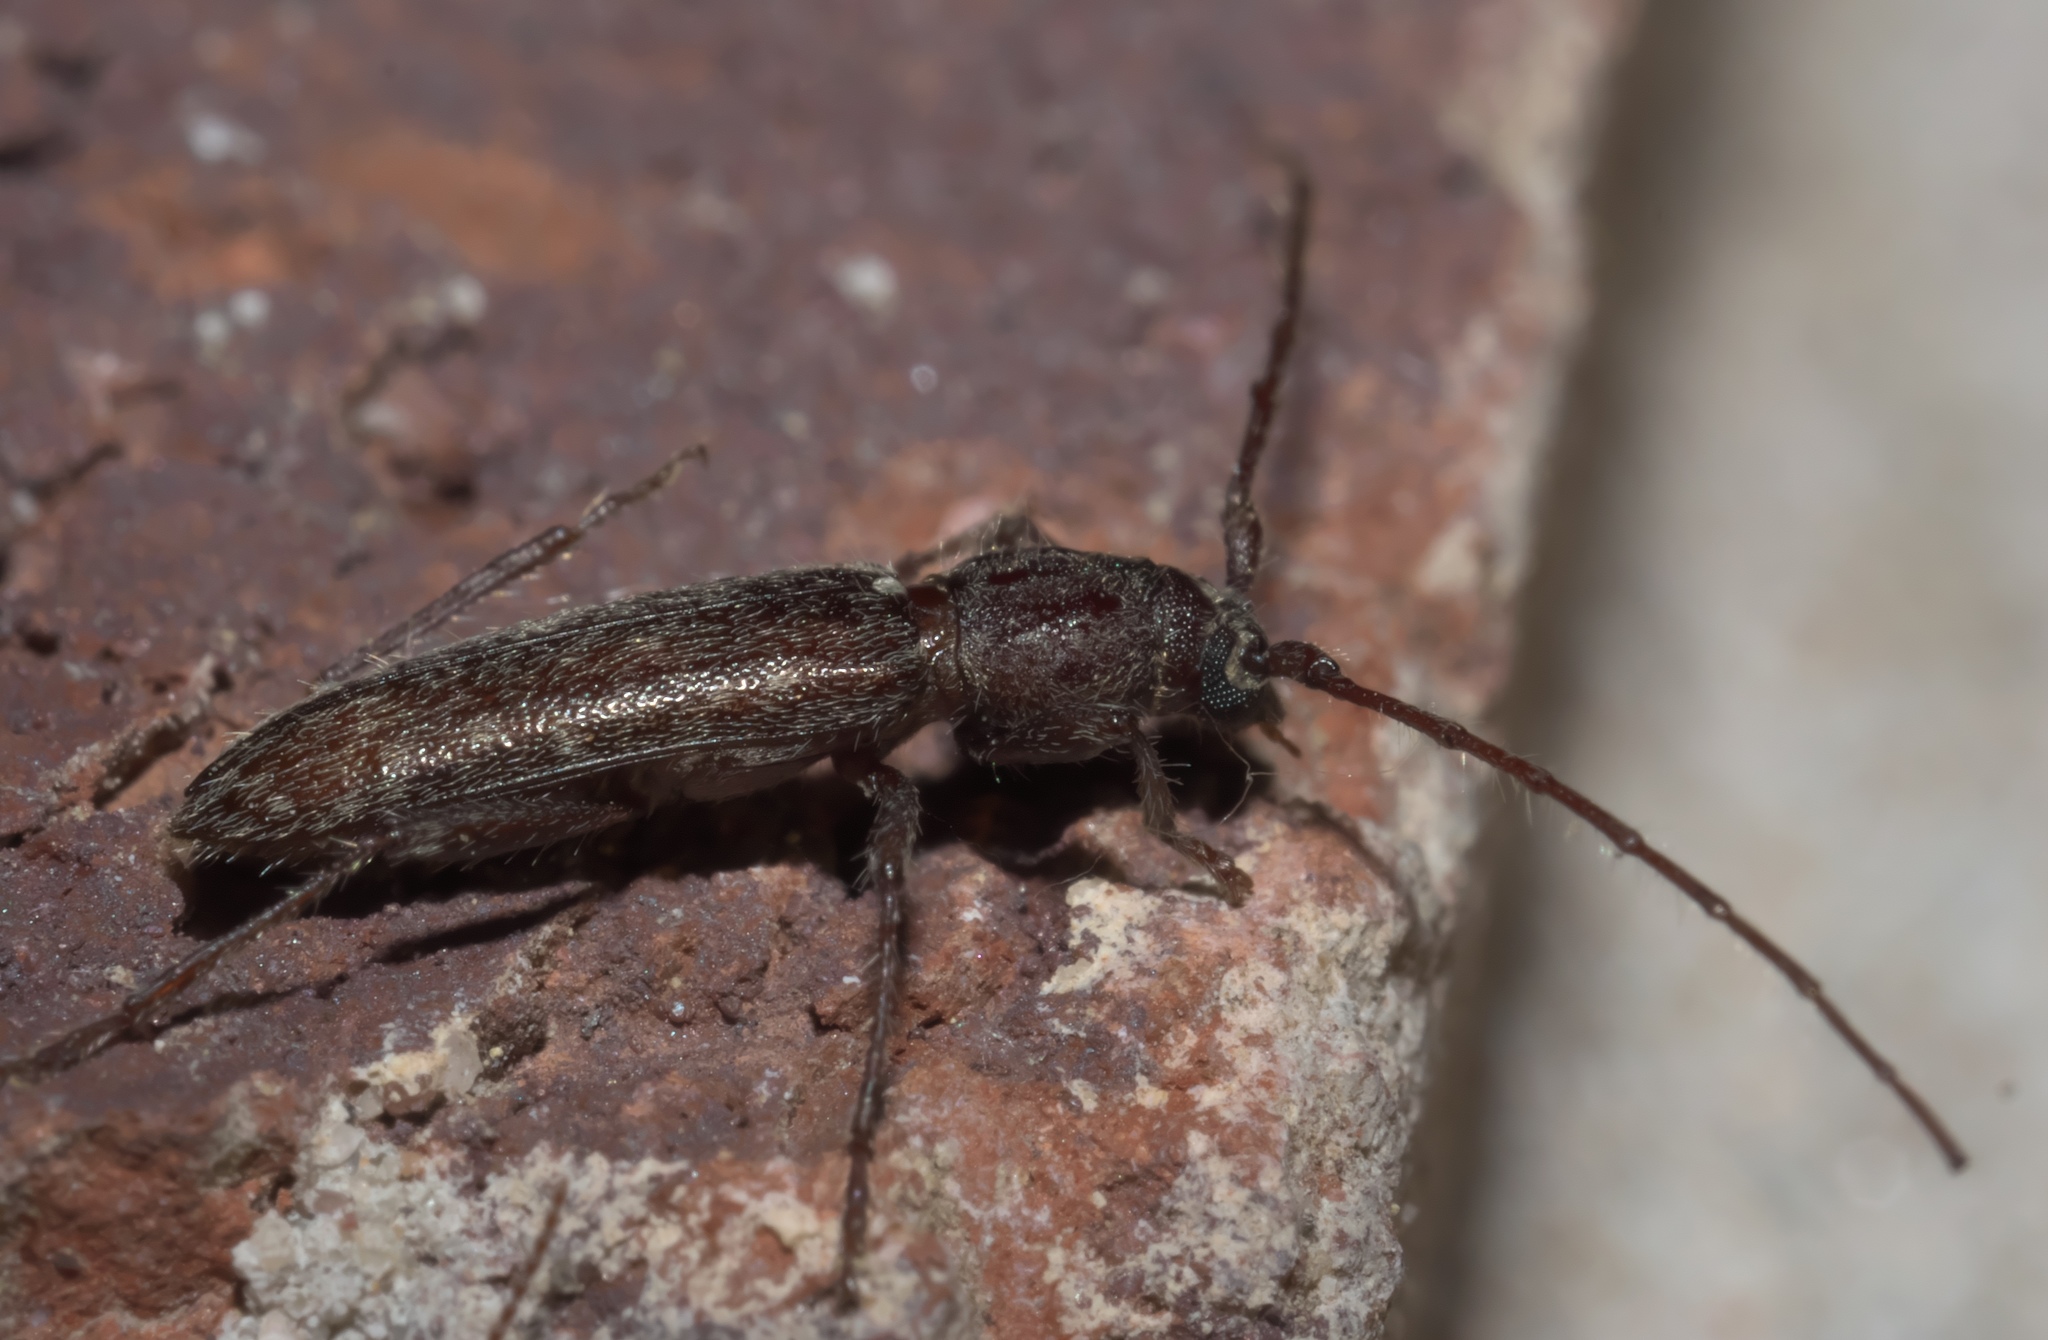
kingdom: Animalia
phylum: Arthropoda
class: Insecta
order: Coleoptera
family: Cerambycidae
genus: Anelaphus
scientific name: Anelaphus pumilus
